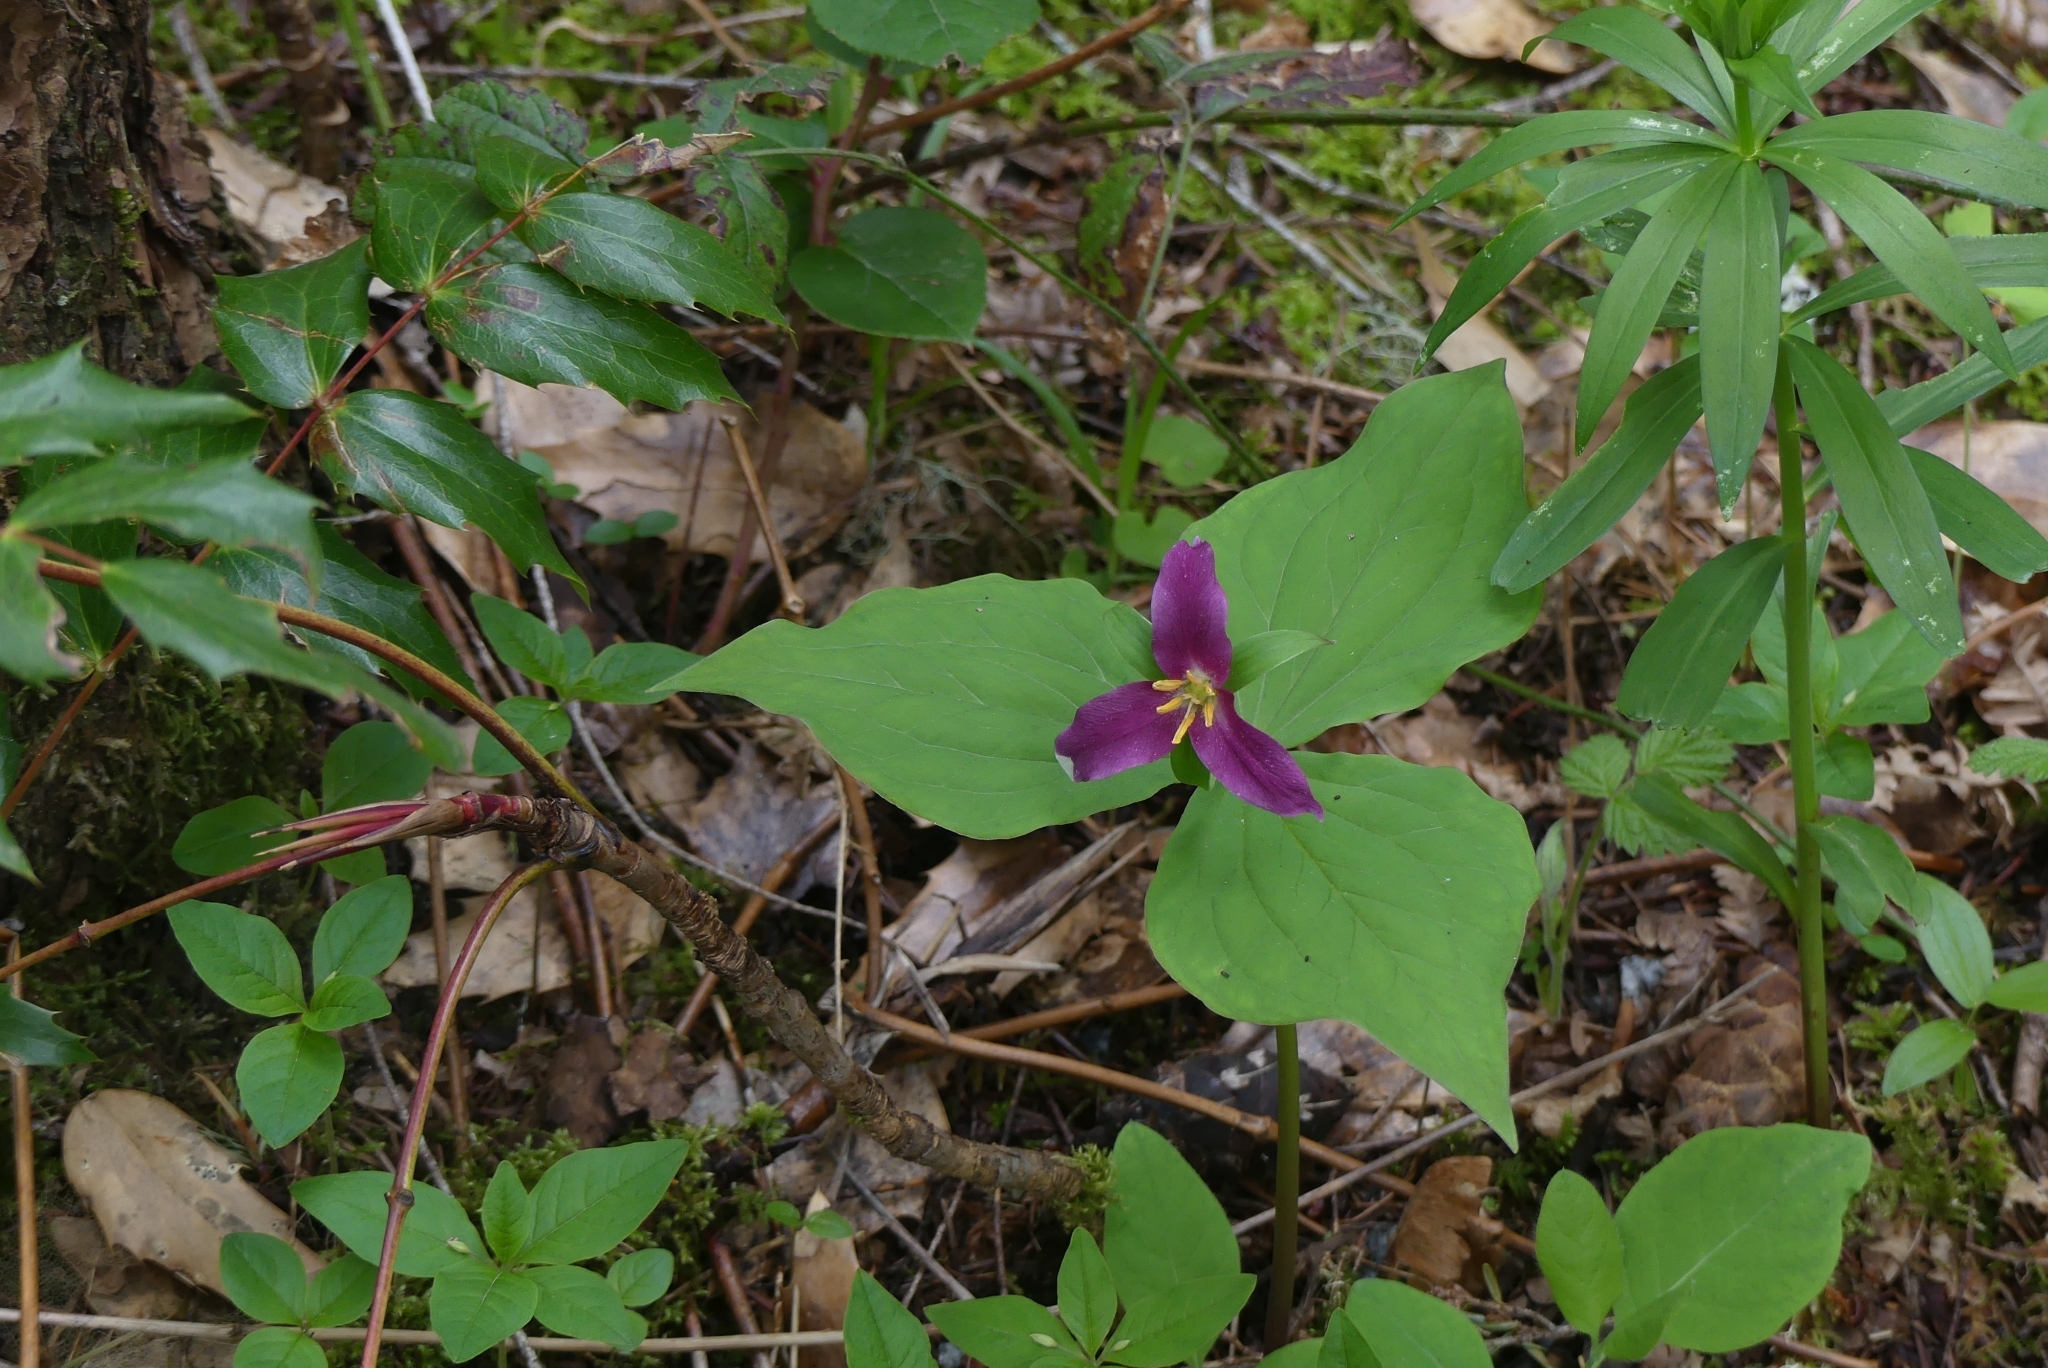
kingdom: Plantae
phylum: Tracheophyta
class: Liliopsida
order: Liliales
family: Melanthiaceae
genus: Trillium
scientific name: Trillium ovatum
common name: Pacific trillium
